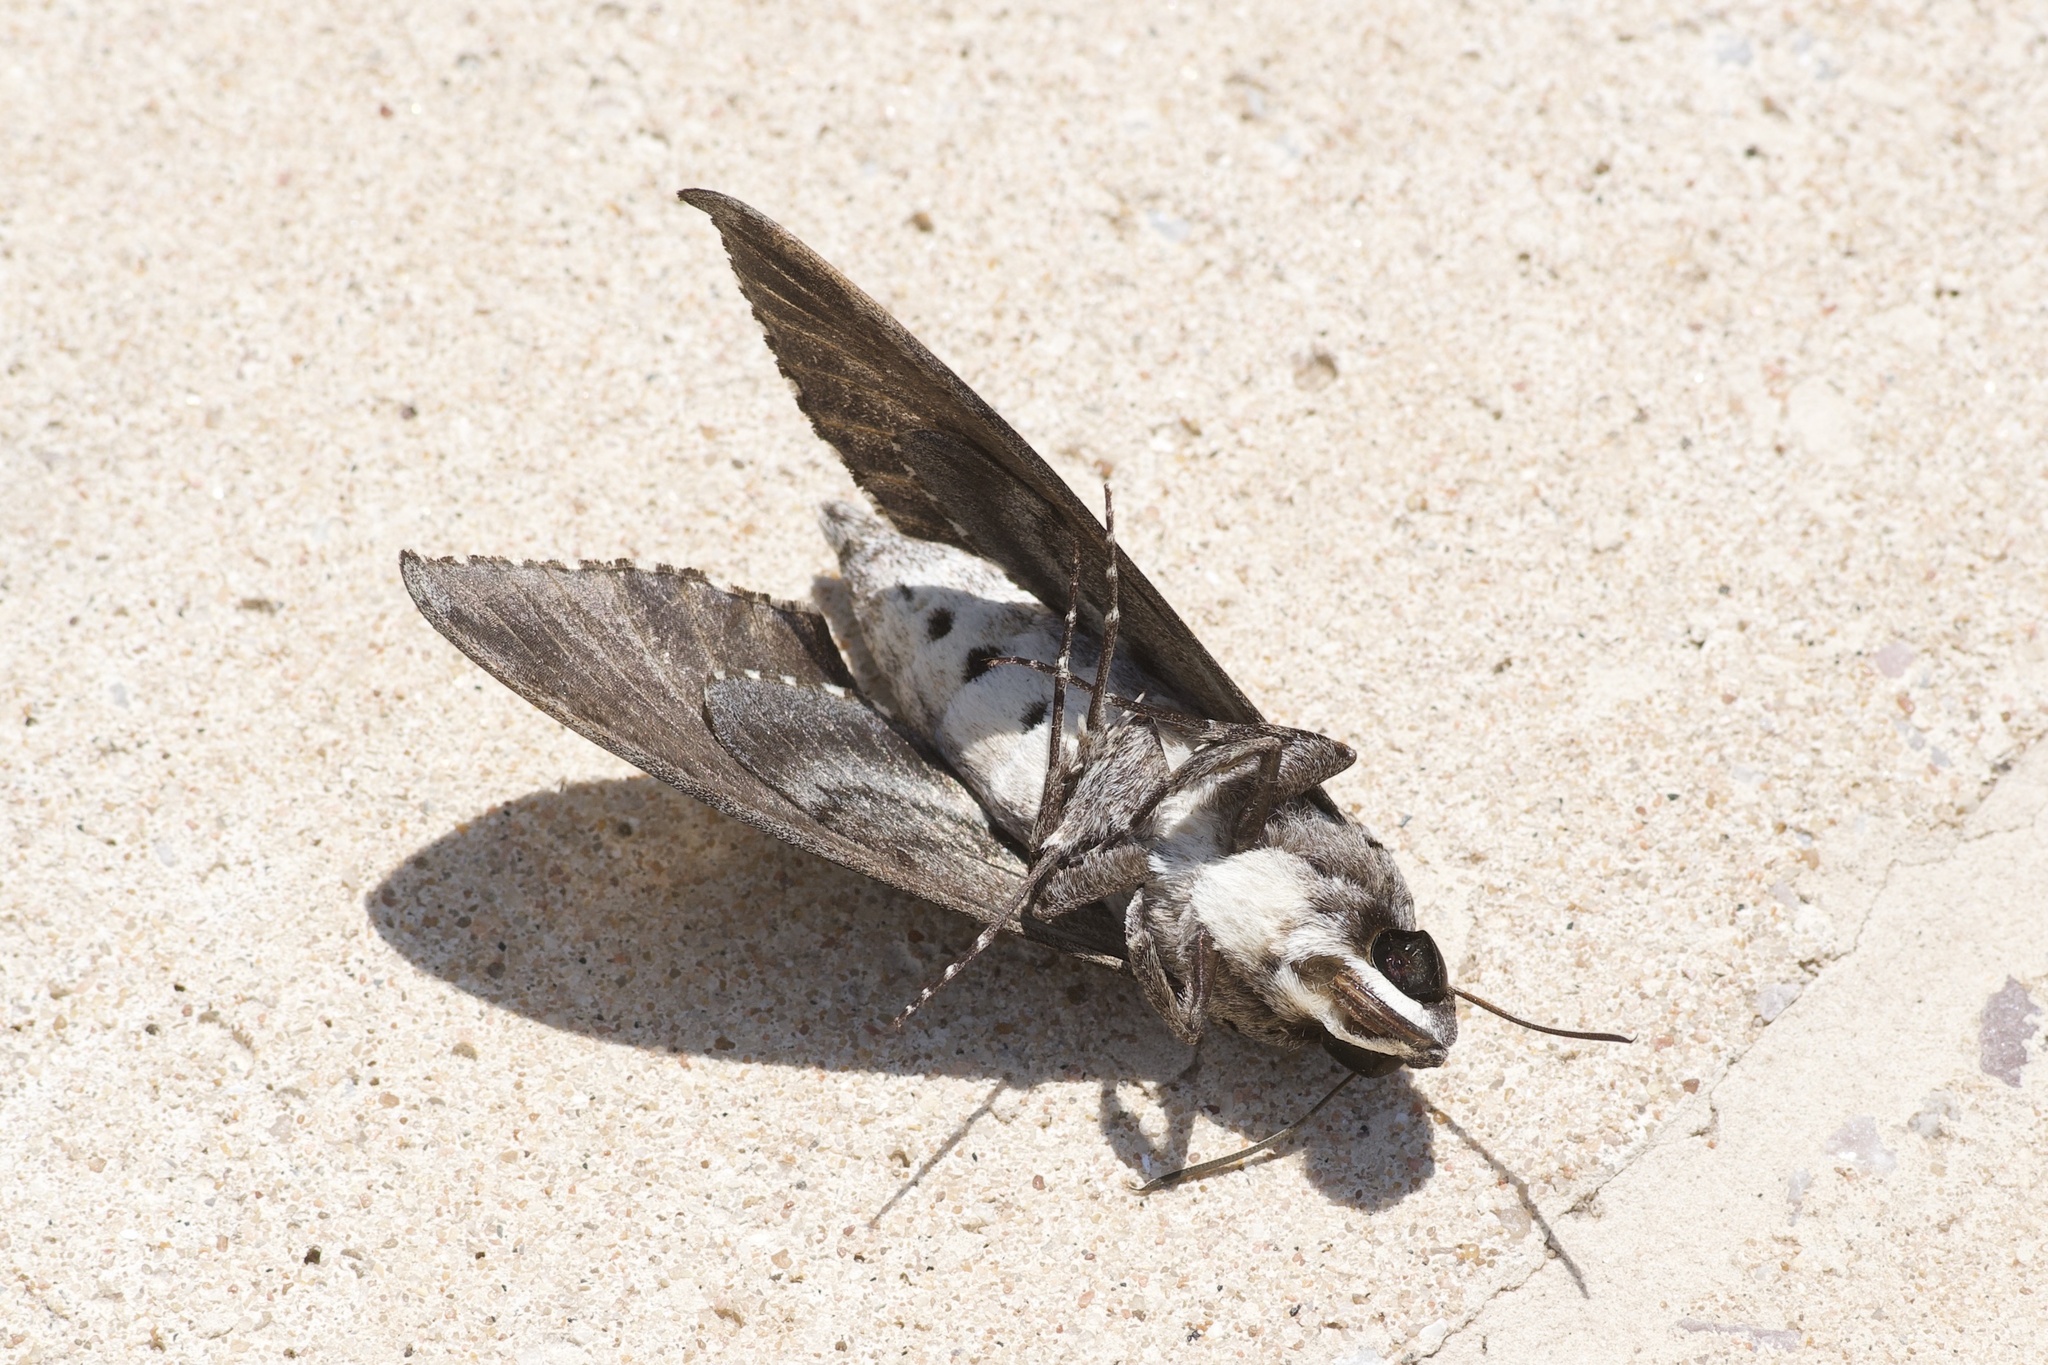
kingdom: Animalia
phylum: Arthropoda
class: Insecta
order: Lepidoptera
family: Sphingidae
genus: Agrius
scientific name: Agrius cingulata
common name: Pink-spotted hawkmoth
